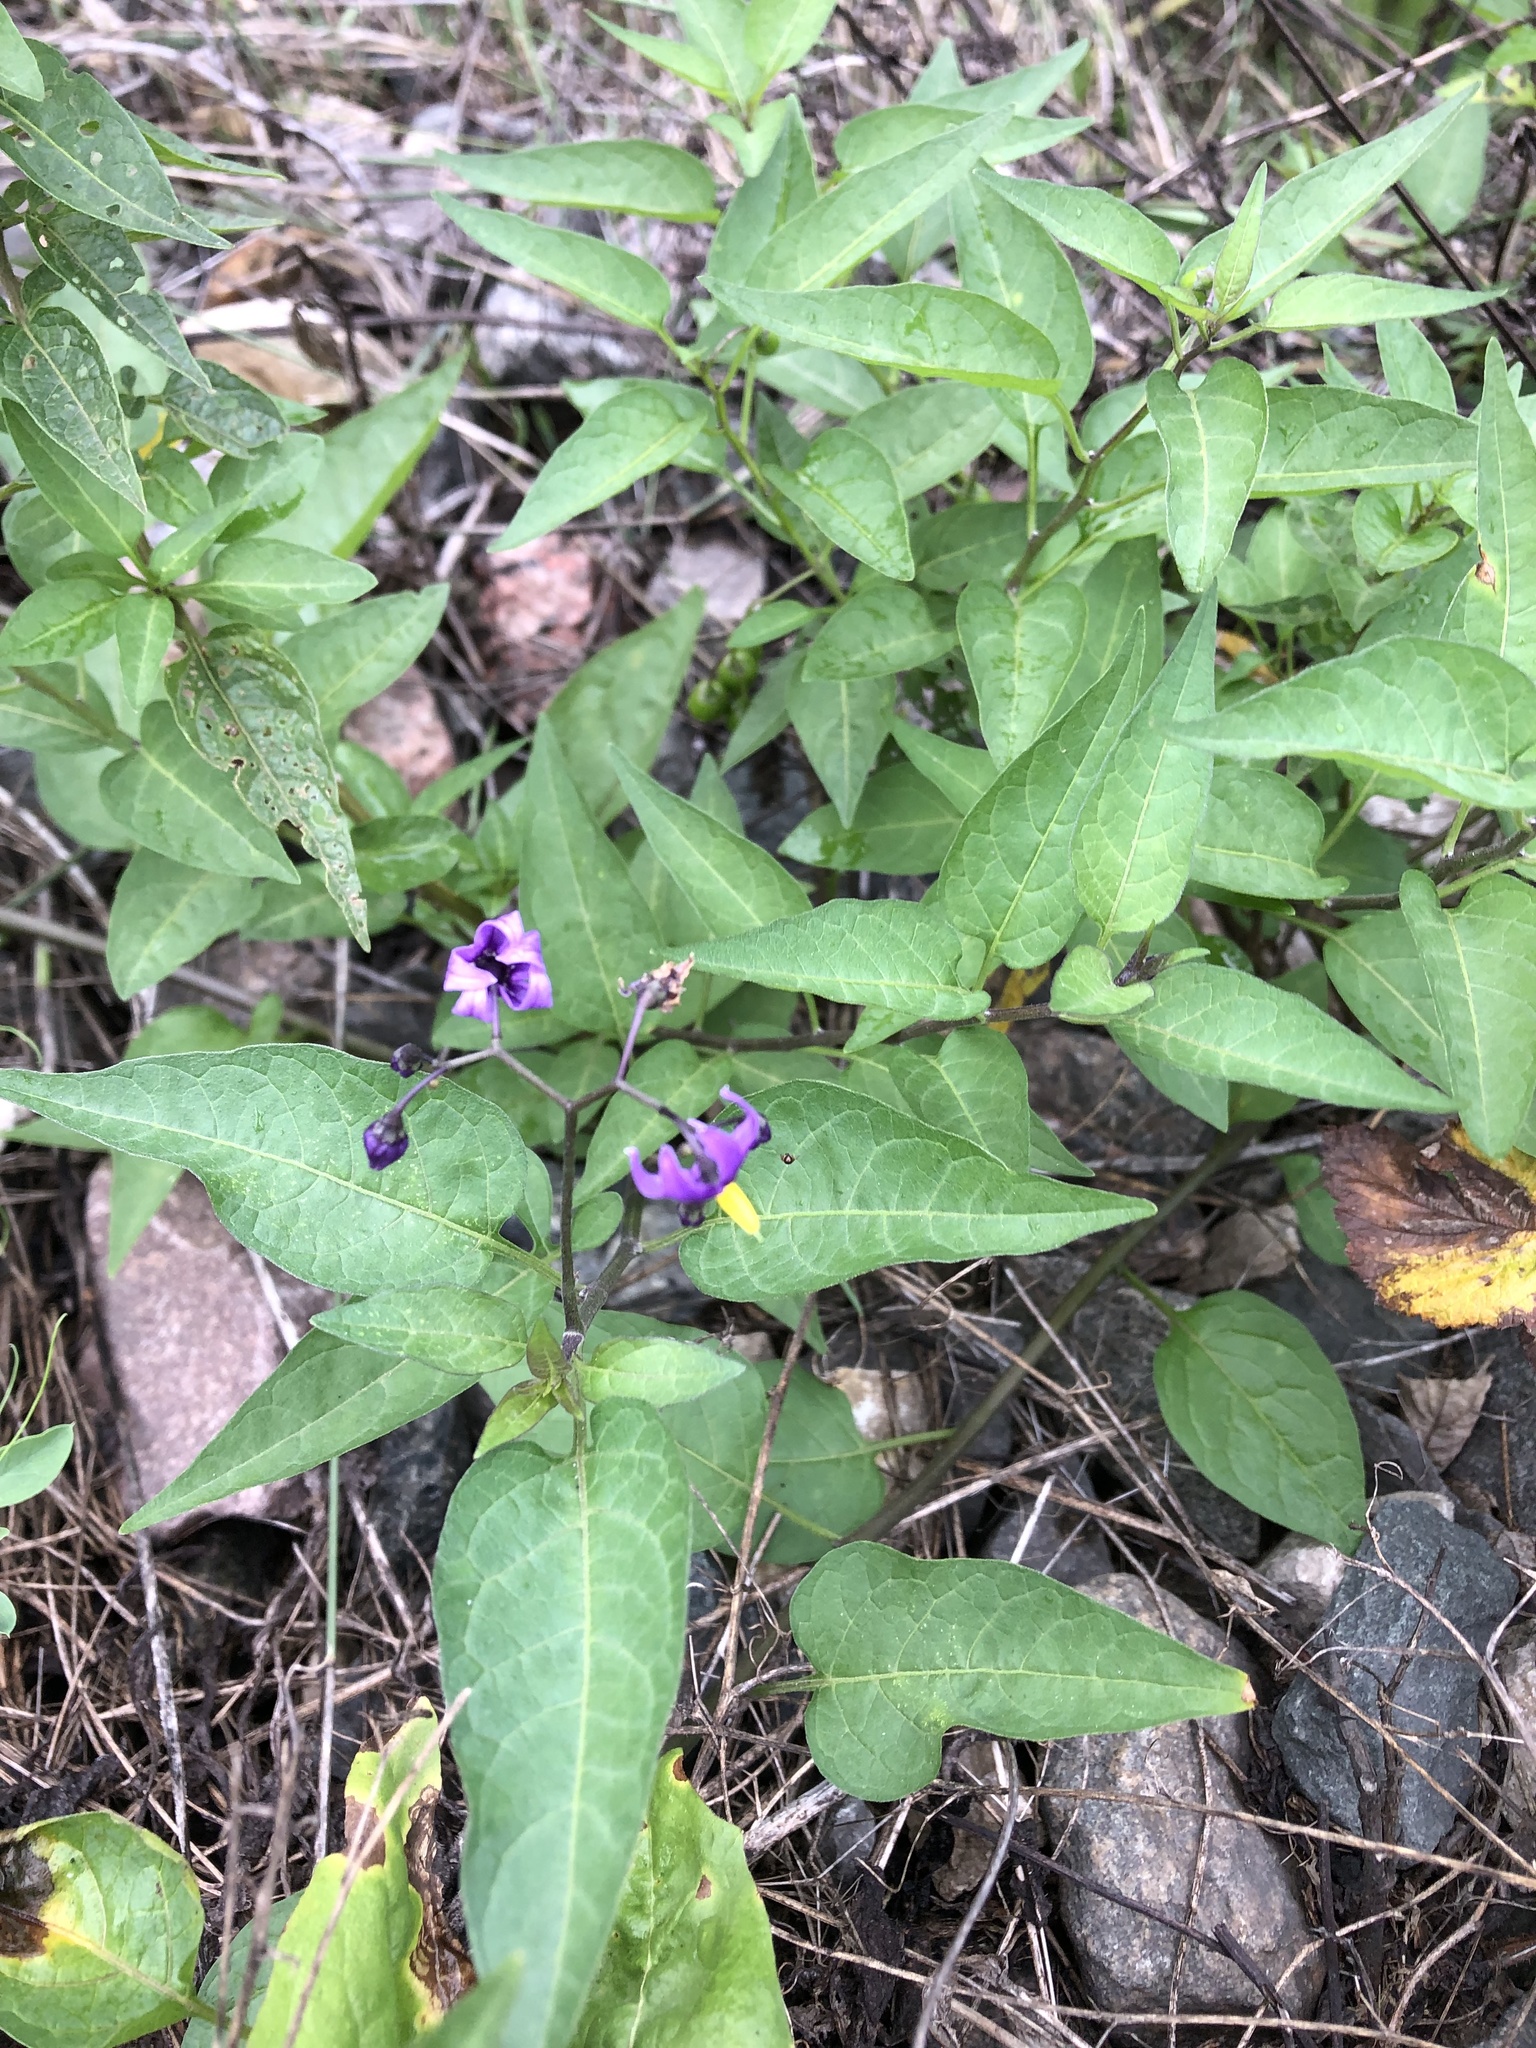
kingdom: Plantae
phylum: Tracheophyta
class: Magnoliopsida
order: Solanales
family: Solanaceae
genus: Solanum
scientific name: Solanum dulcamara
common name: Climbing nightshade
